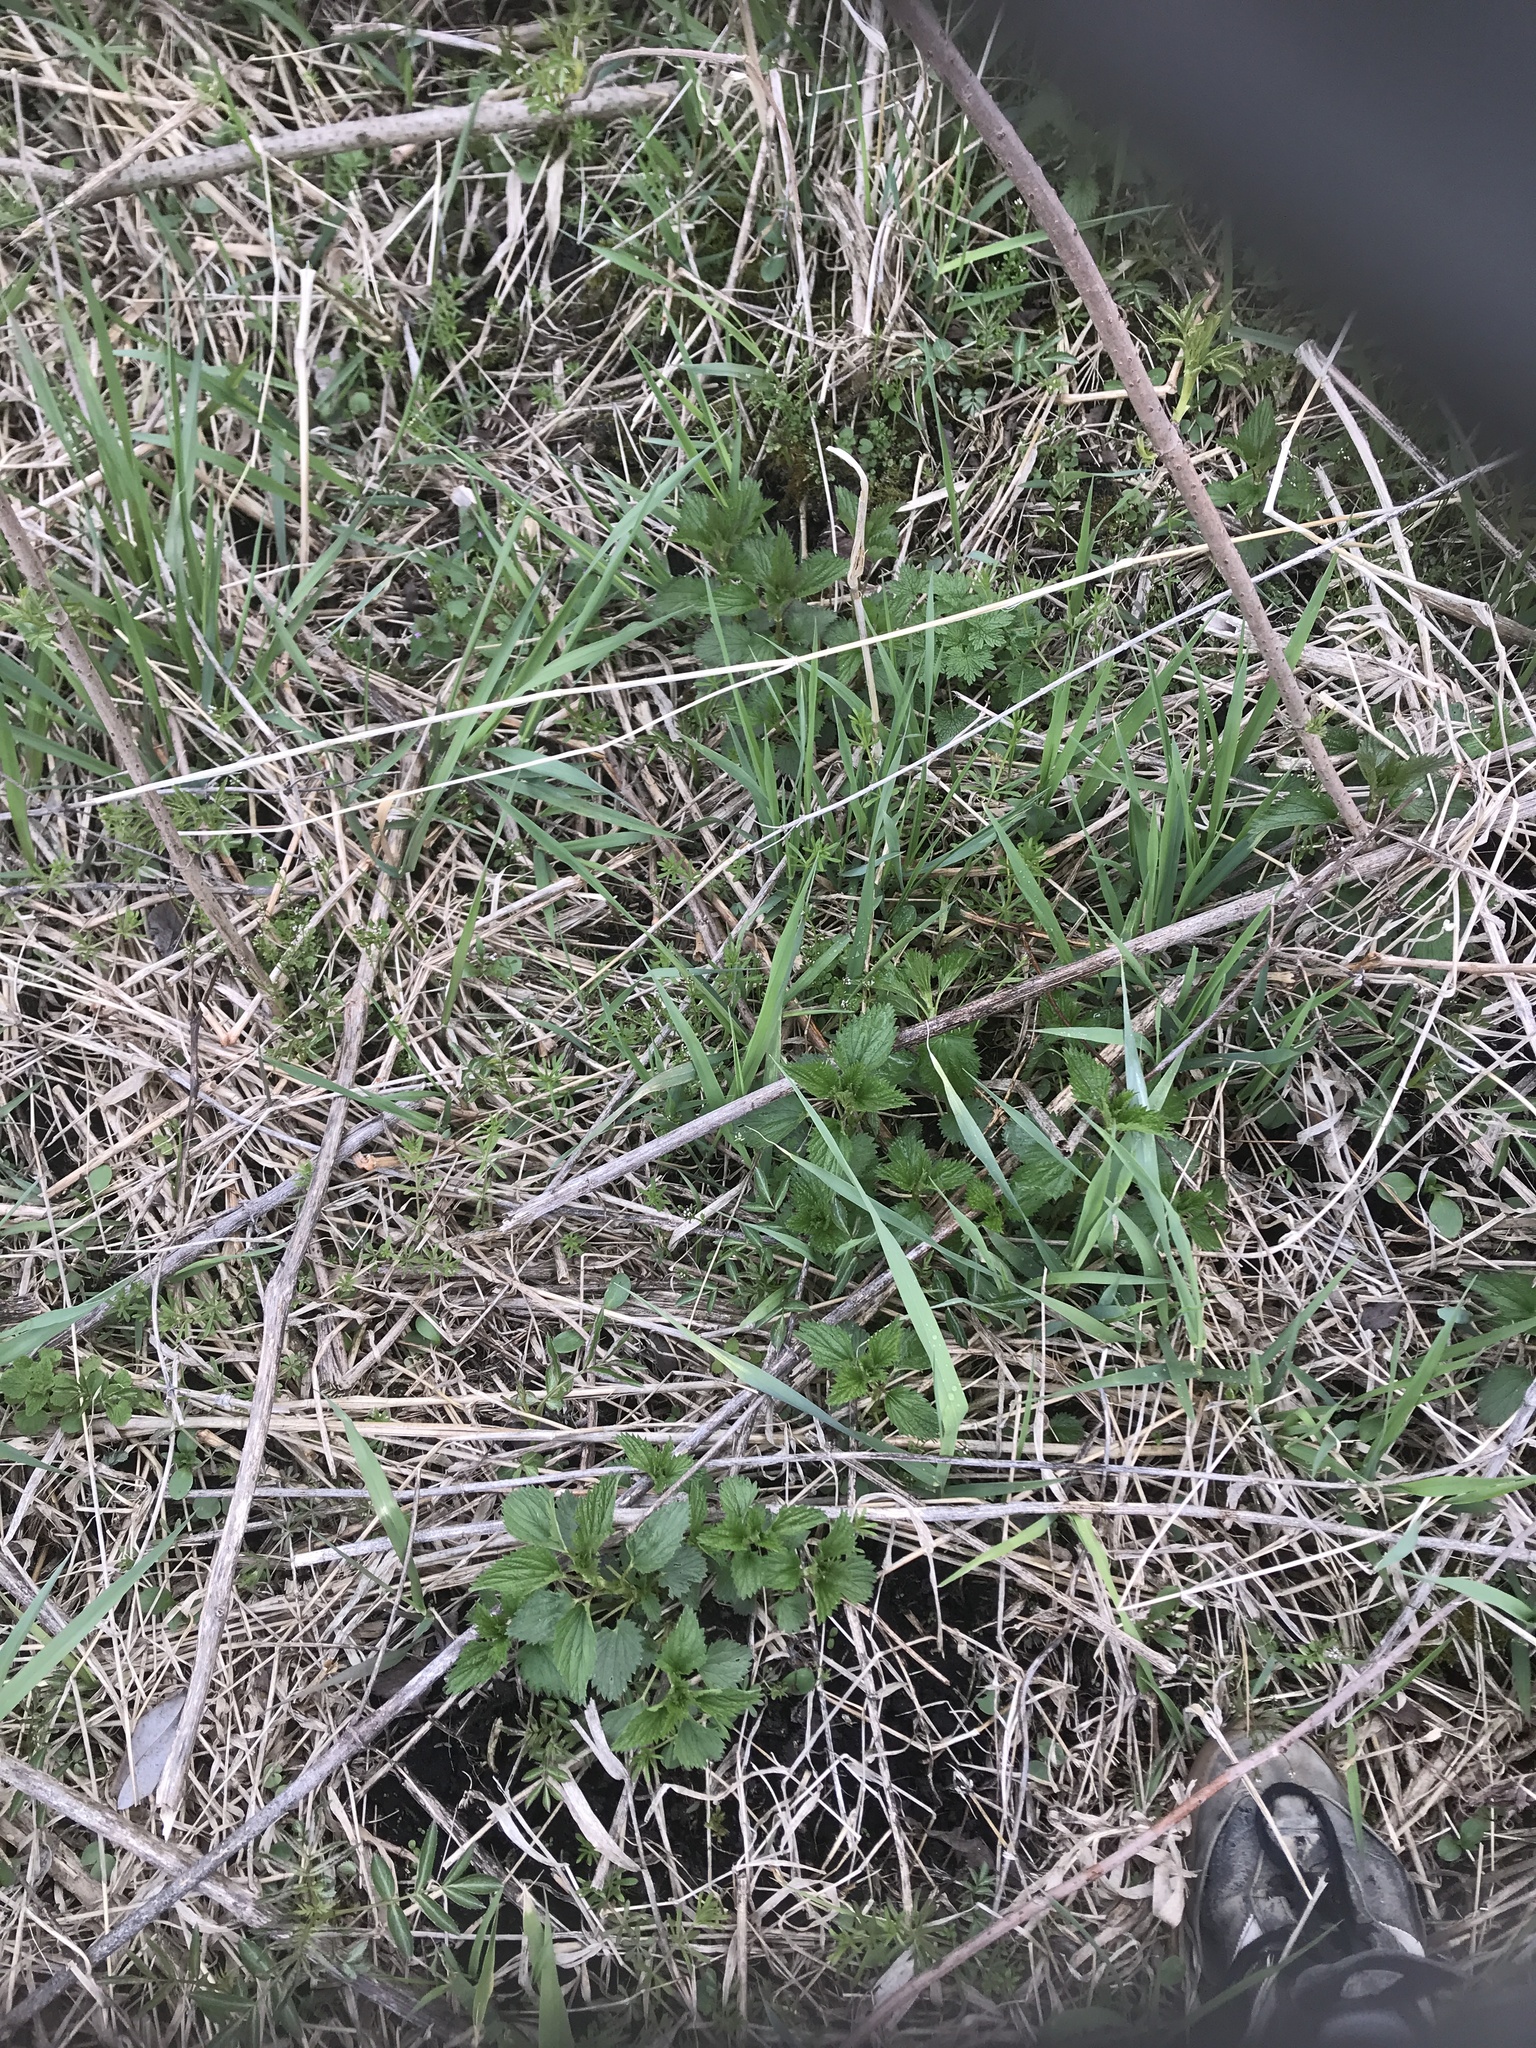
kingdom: Plantae
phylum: Tracheophyta
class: Magnoliopsida
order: Rosales
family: Urticaceae
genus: Urtica
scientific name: Urtica dioica
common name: Common nettle
